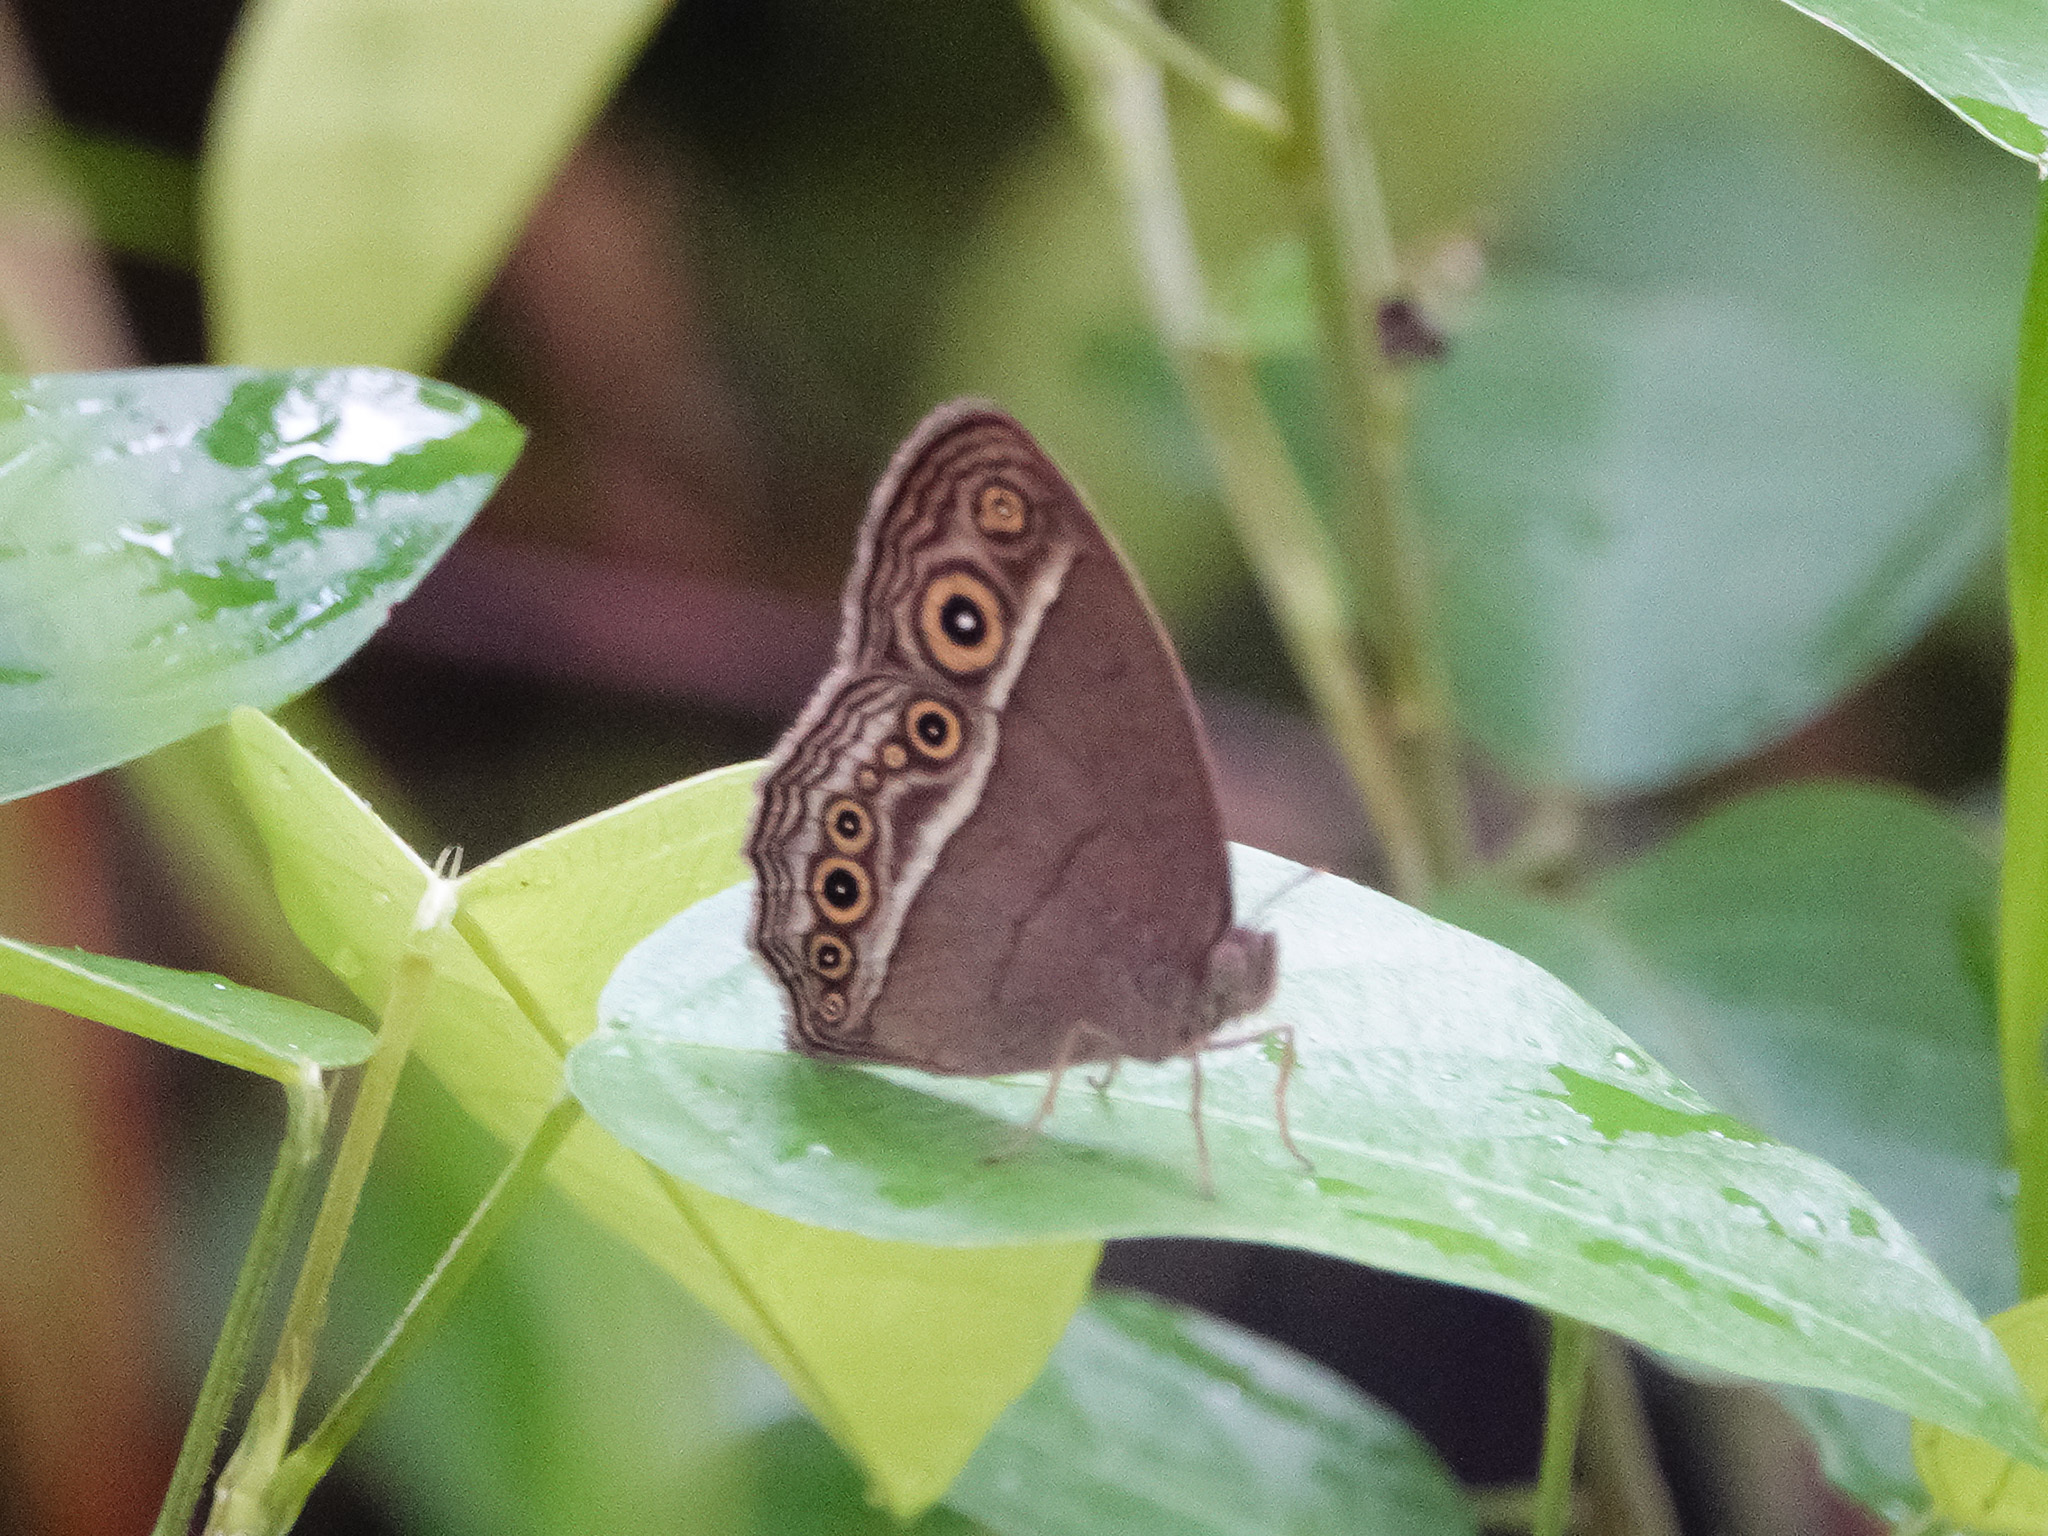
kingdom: Animalia
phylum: Arthropoda
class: Insecta
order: Lepidoptera
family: Nymphalidae
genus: Mycalesis
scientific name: Mycalesis perseoides
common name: Burmese bushbrown
